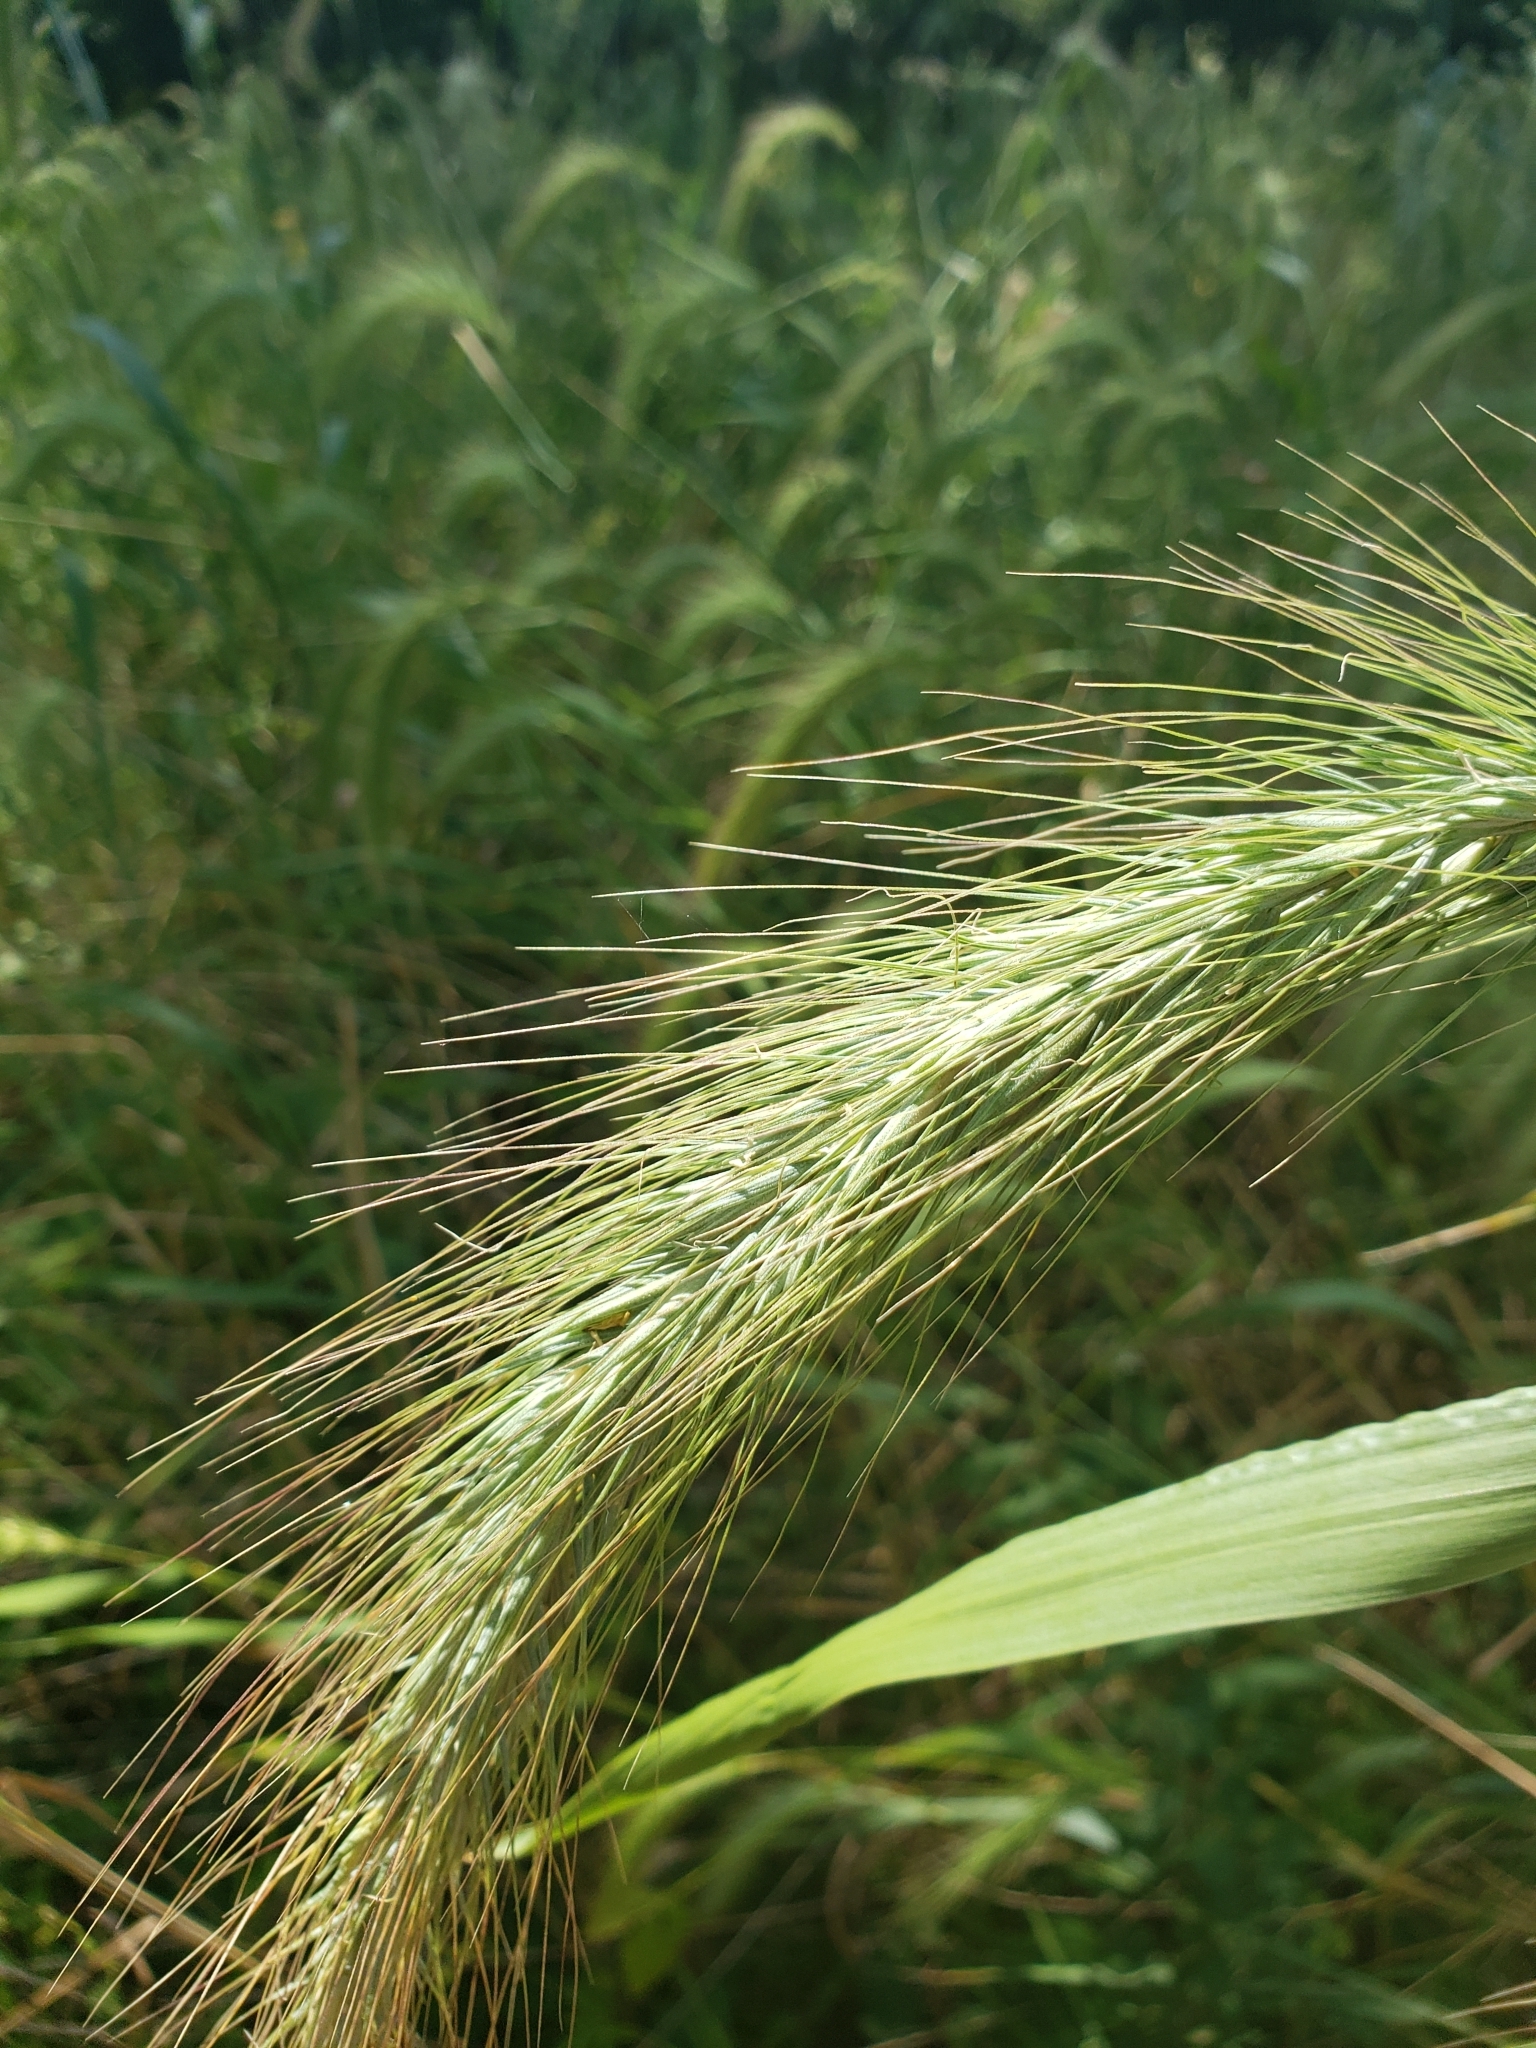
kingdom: Plantae
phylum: Tracheophyta
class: Liliopsida
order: Poales
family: Poaceae
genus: Elymus
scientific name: Elymus canadensis
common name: Canada wild rye
